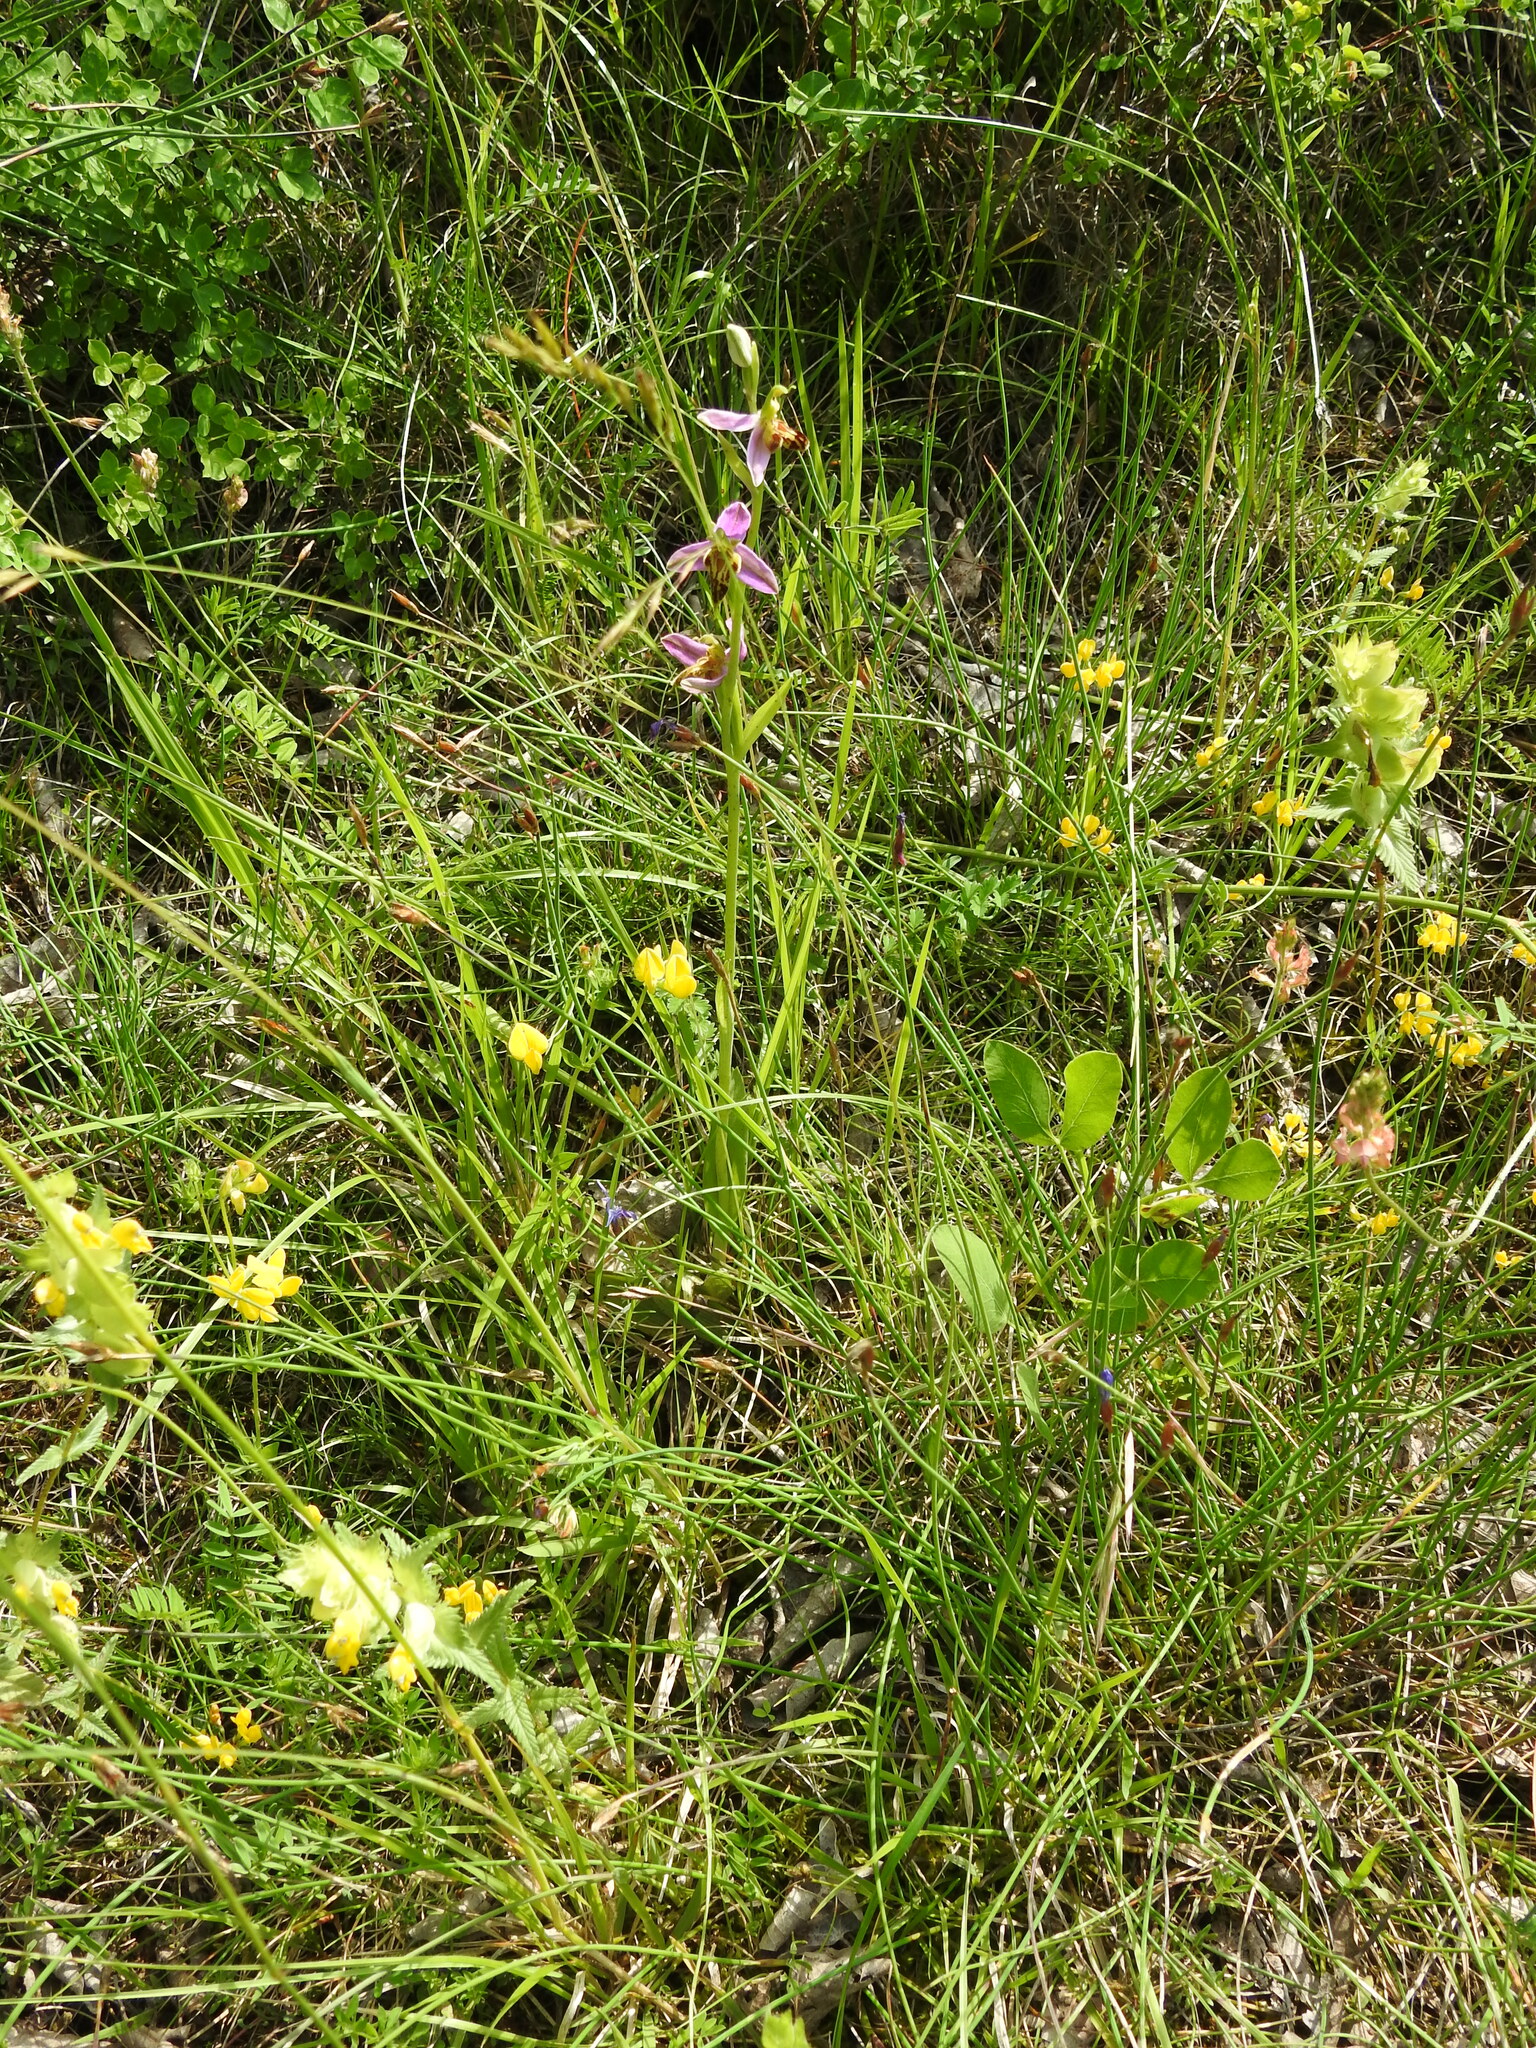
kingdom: Plantae
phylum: Tracheophyta
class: Liliopsida
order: Asparagales
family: Orchidaceae
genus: Ophrys
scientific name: Ophrys apifera
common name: Bee orchid
